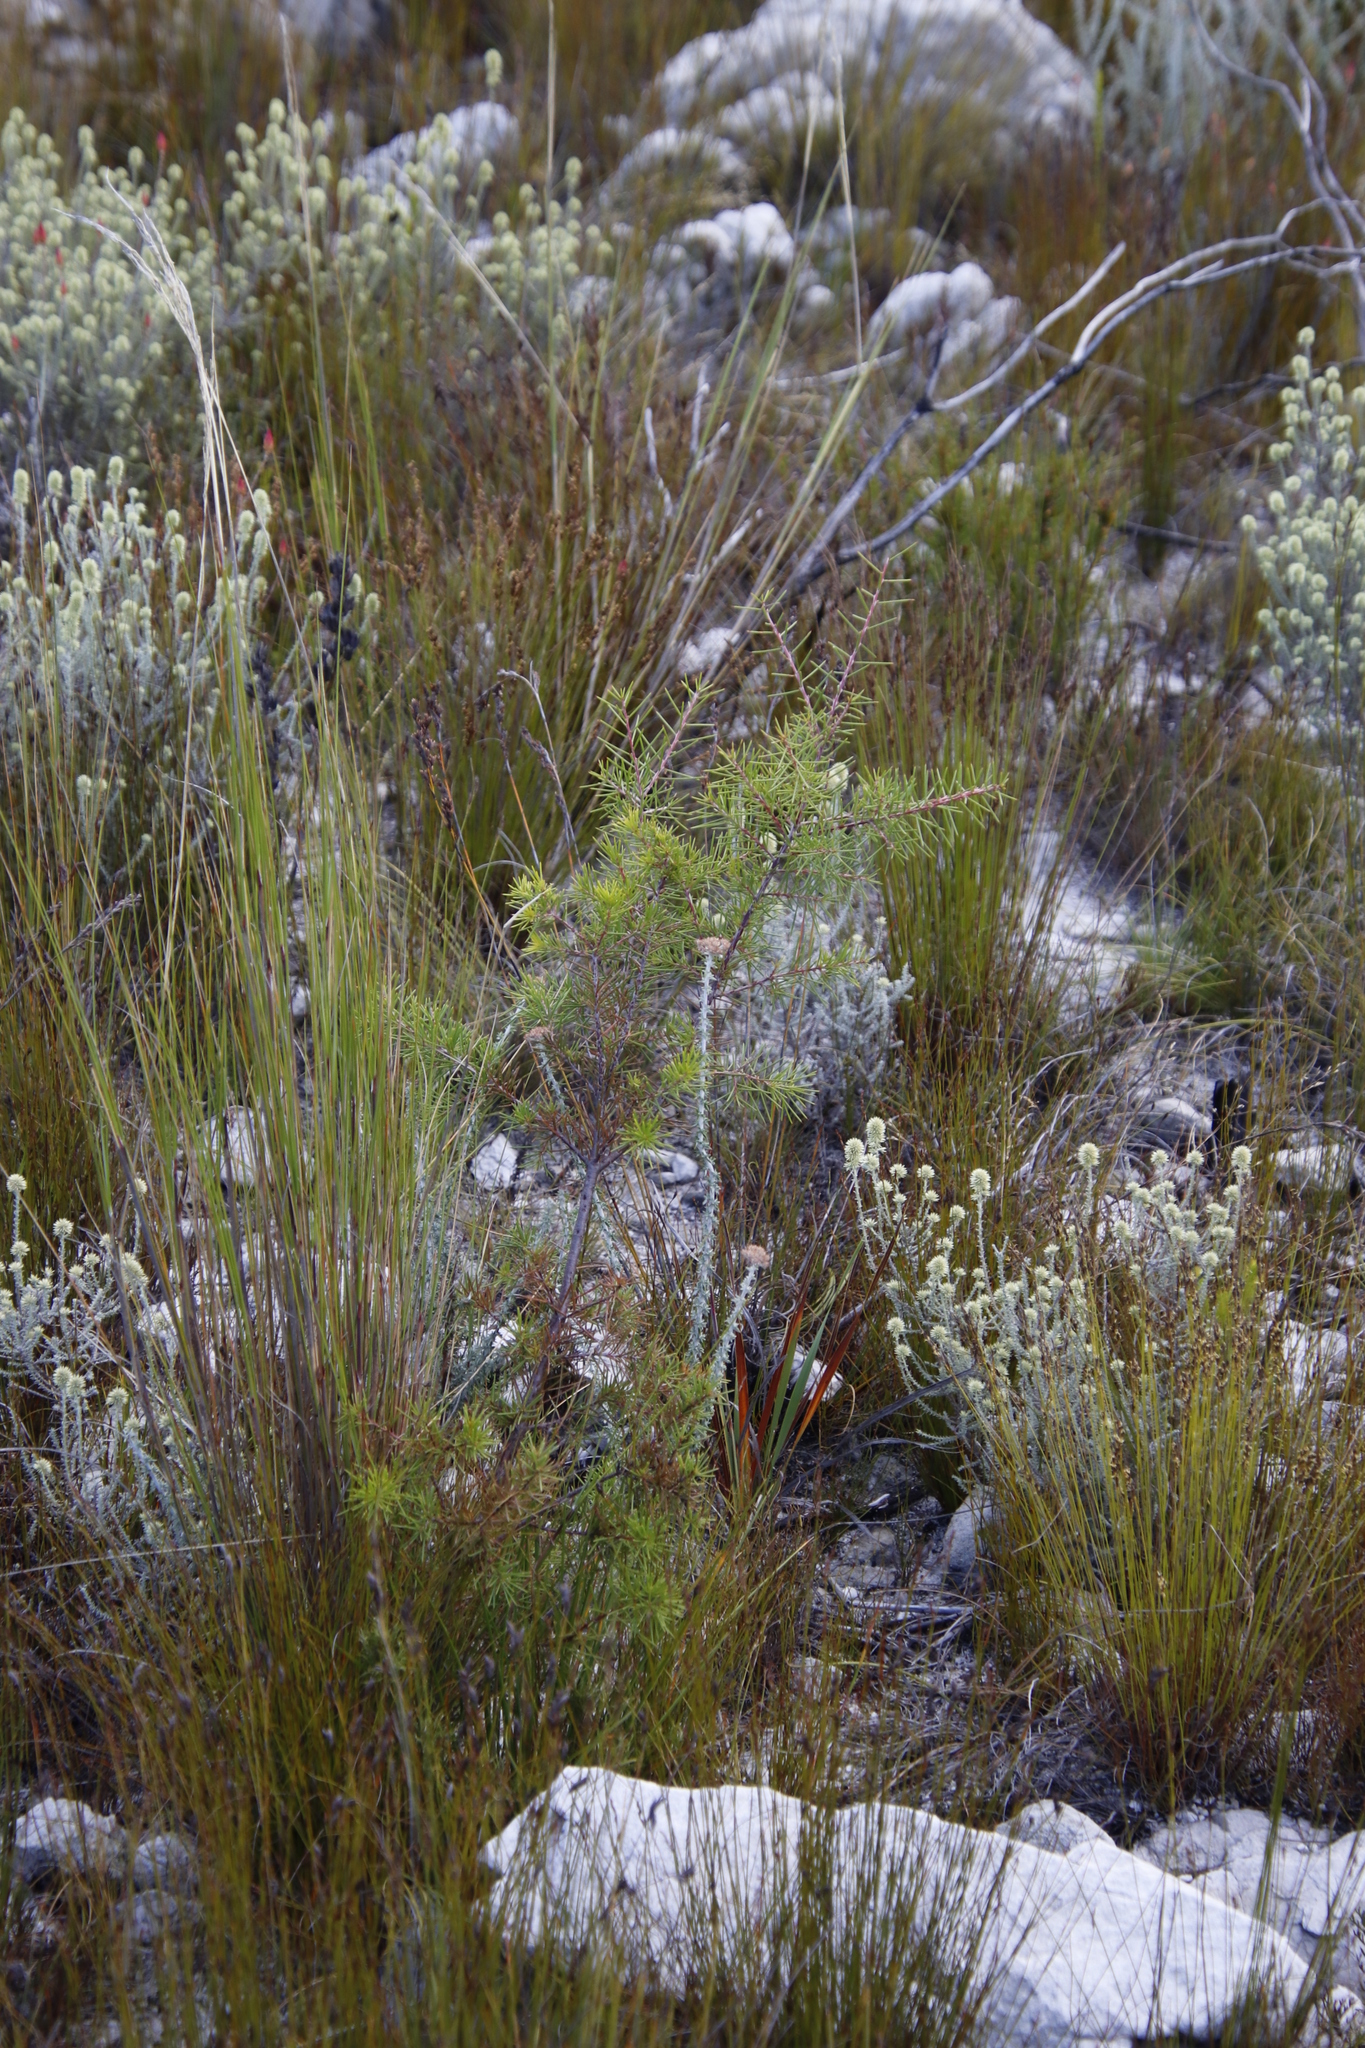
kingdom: Plantae
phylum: Tracheophyta
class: Magnoliopsida
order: Proteales
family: Proteaceae
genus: Hakea
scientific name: Hakea sericea
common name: Needle bush
